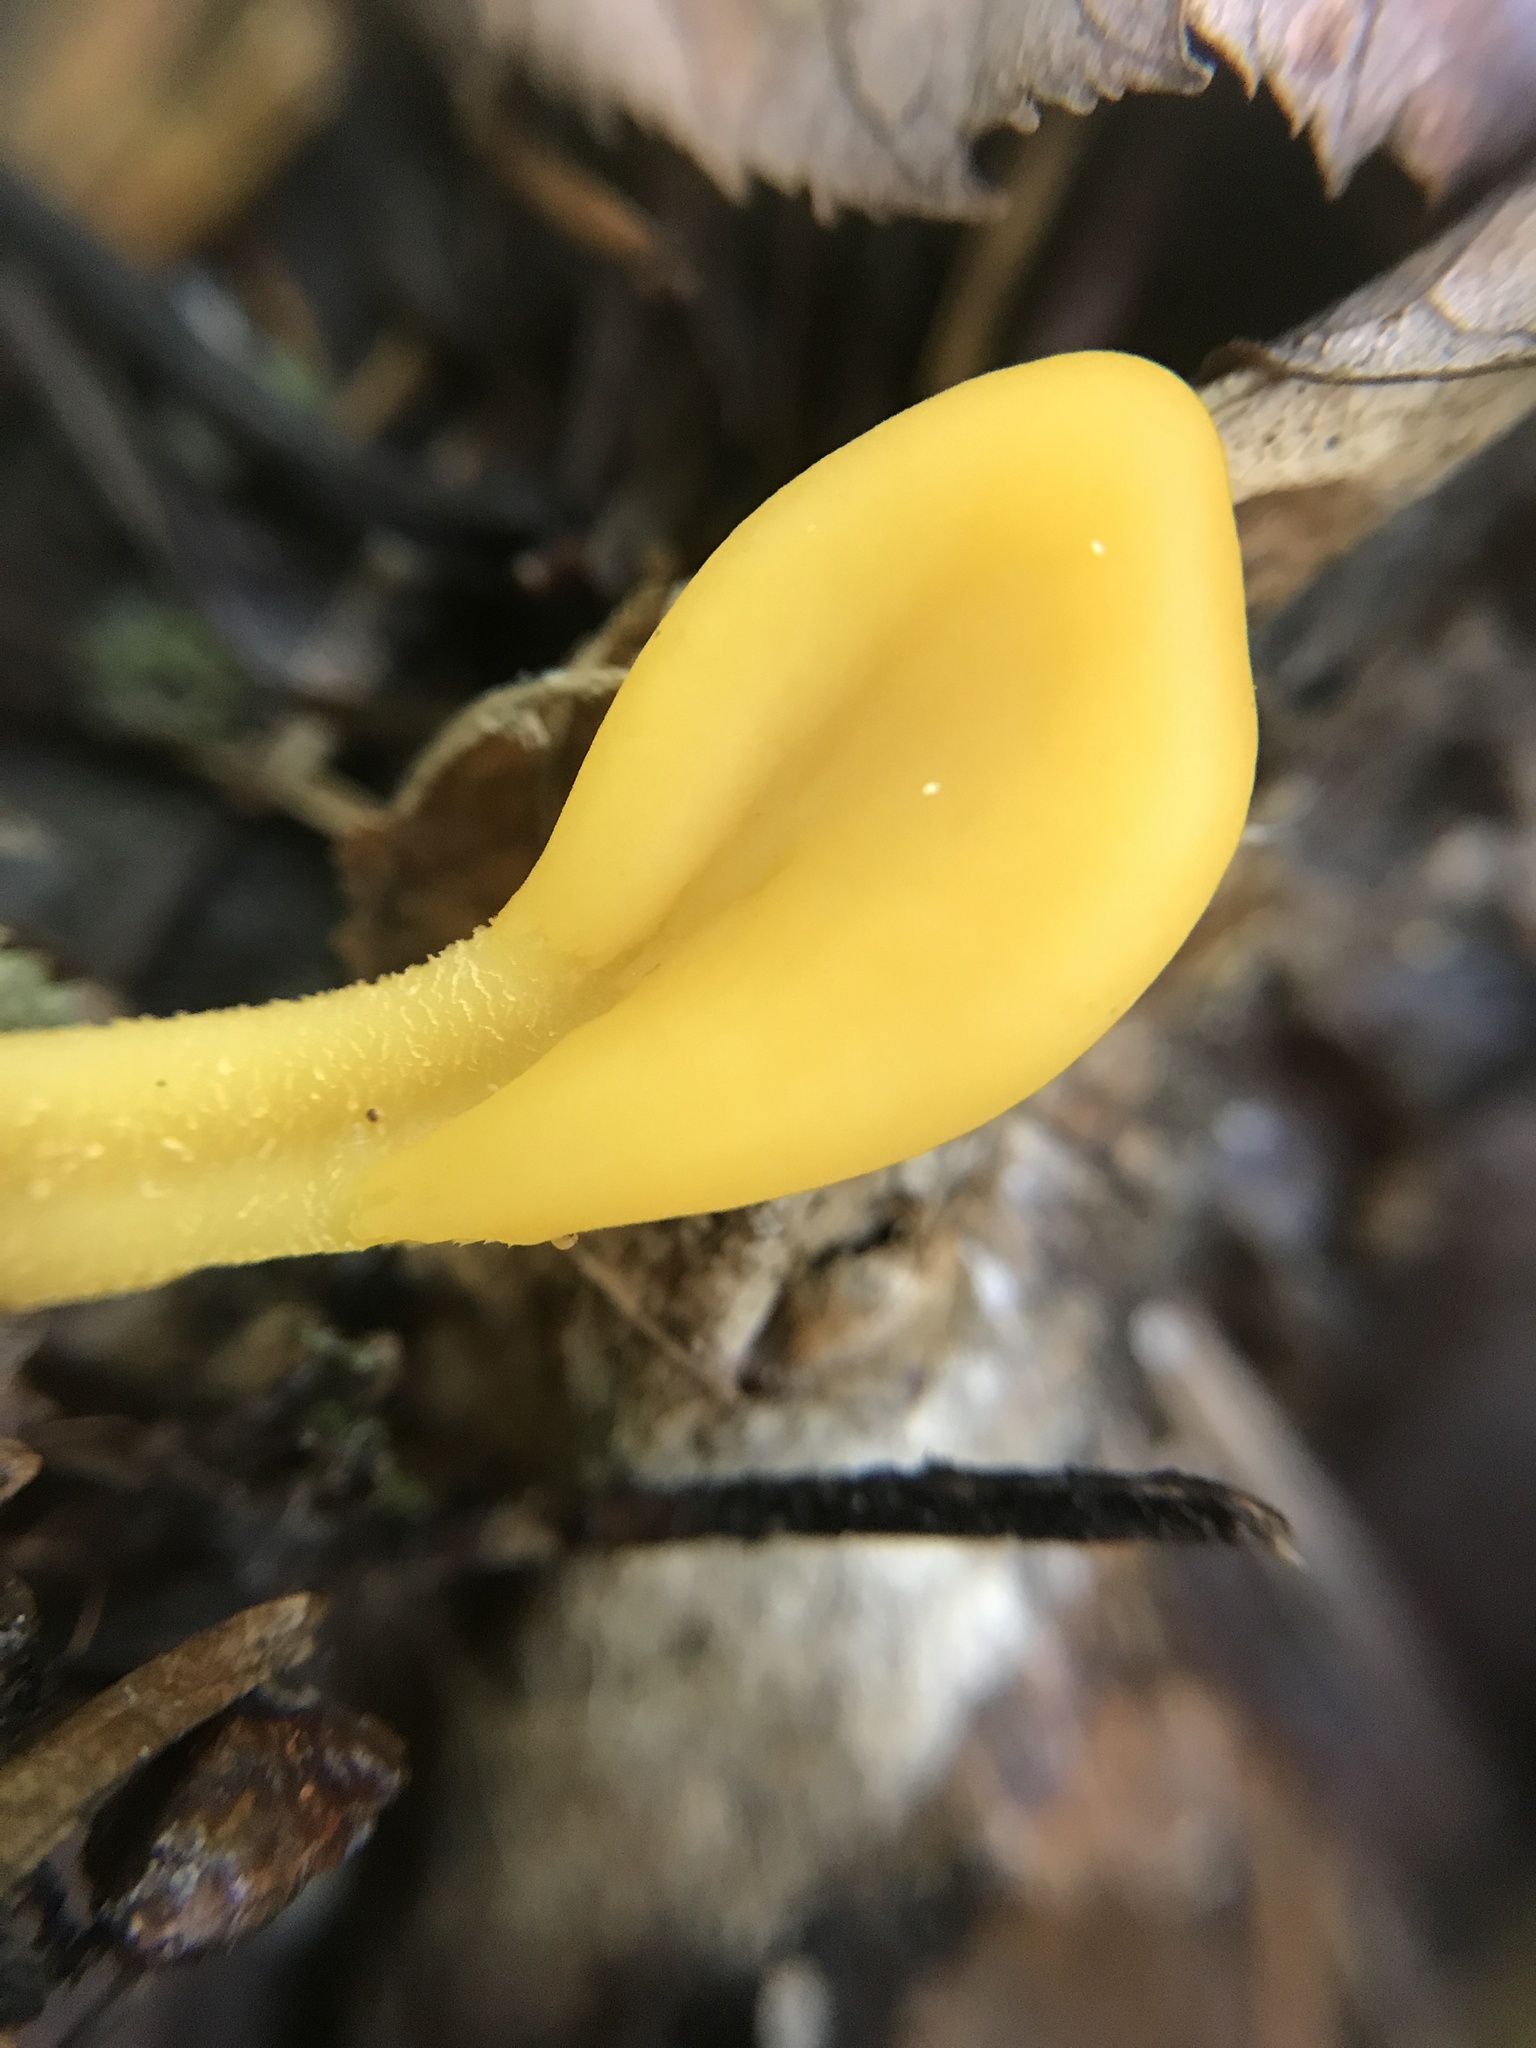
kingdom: Fungi
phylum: Ascomycota
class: Leotiomycetes
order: Leotiales
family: Leotiaceae
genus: Microglossum
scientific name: Microglossum rufum
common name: Orange earthtongue
